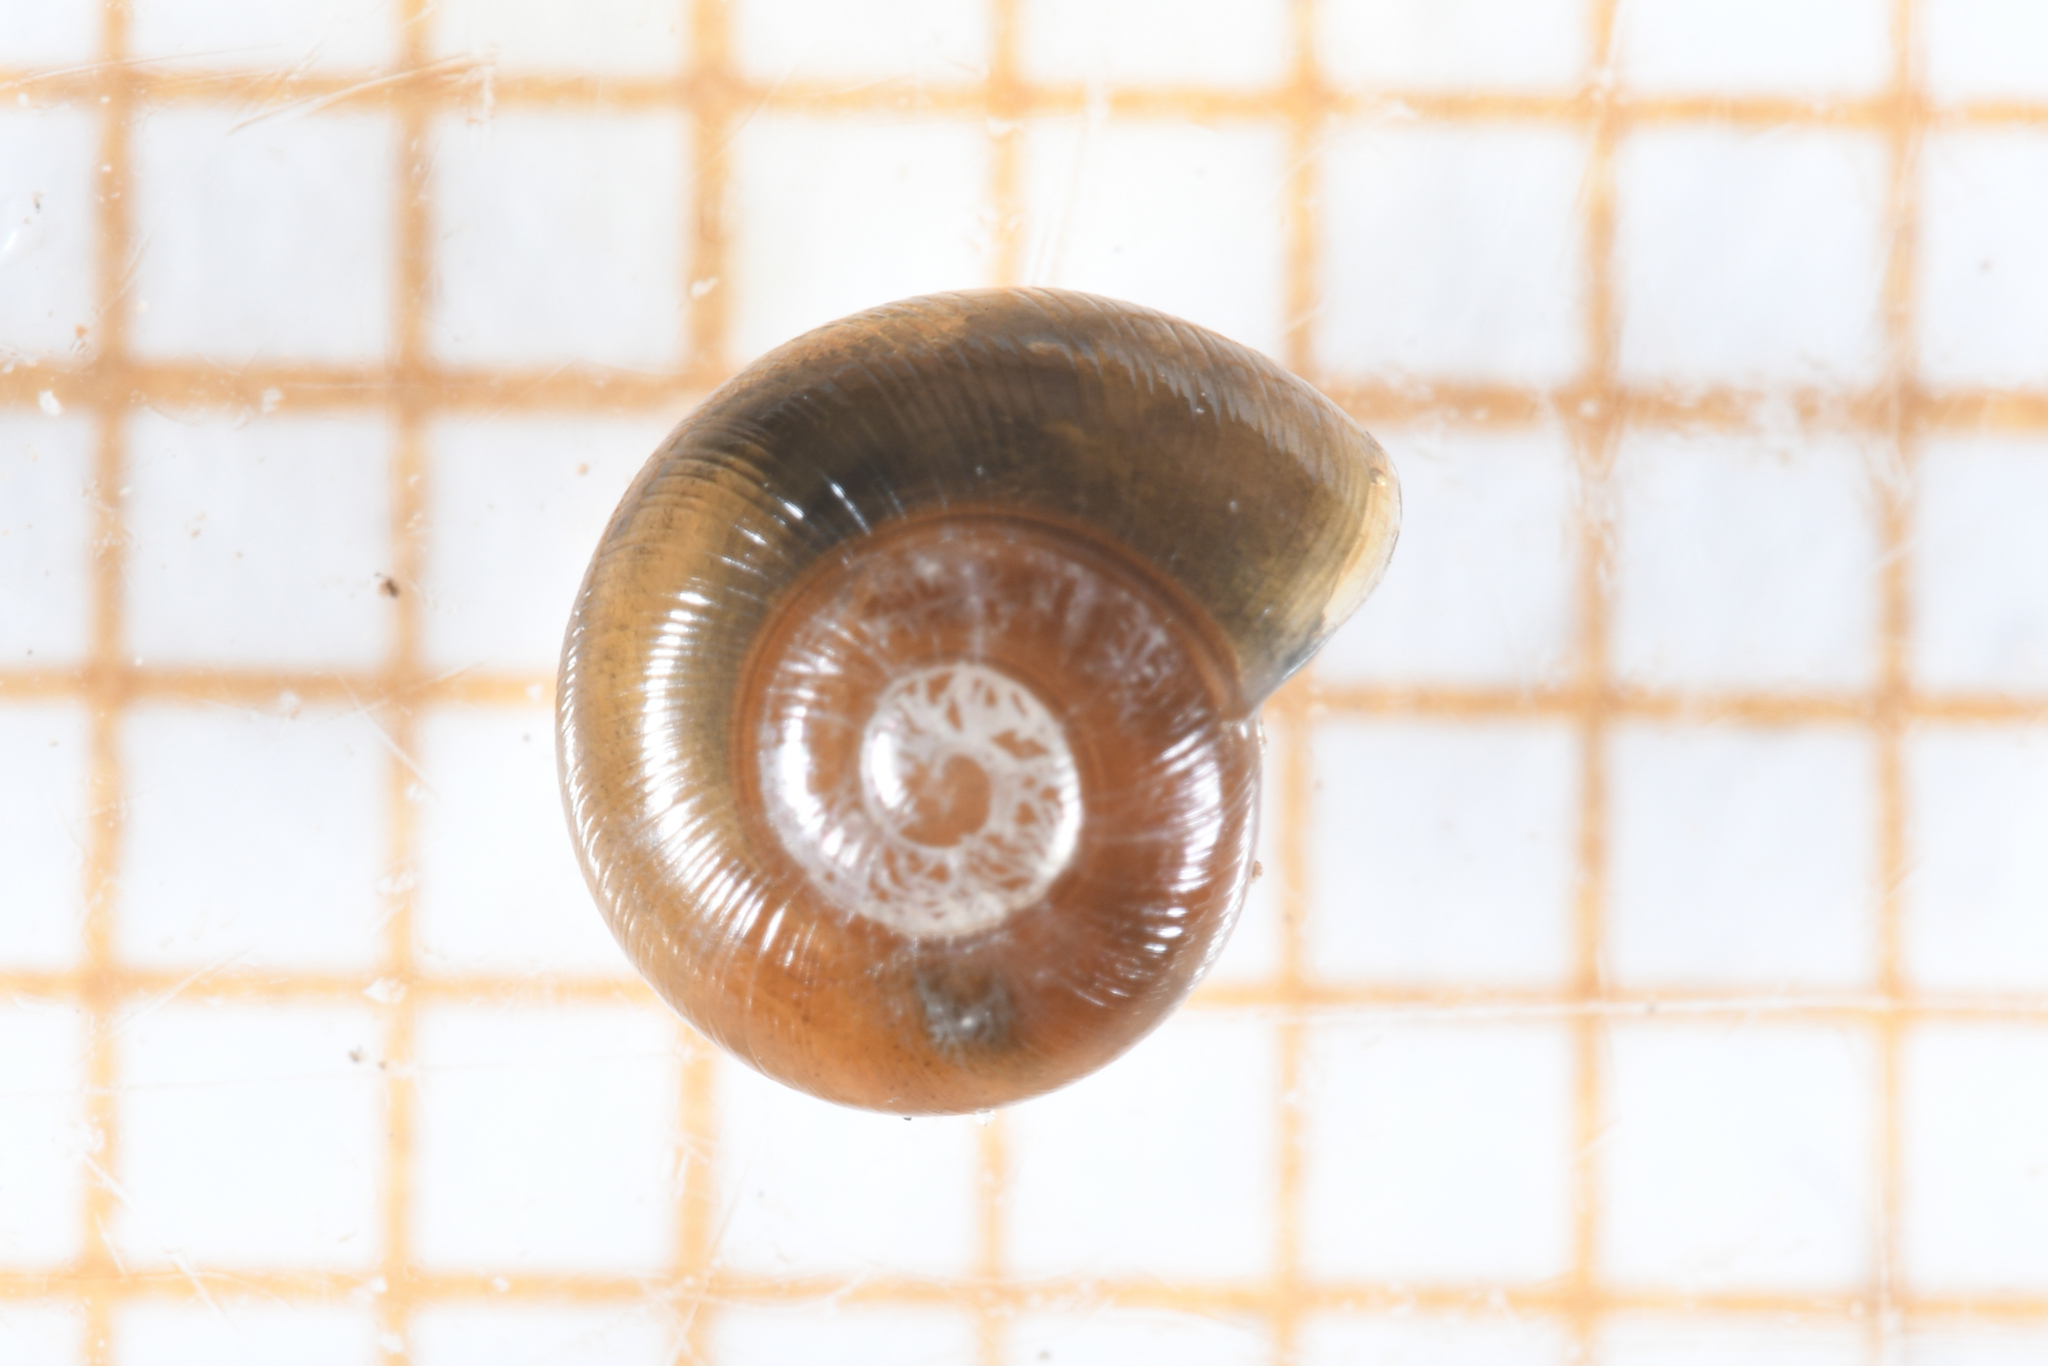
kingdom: Animalia
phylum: Mollusca
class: Gastropoda
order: Stylommatophora
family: Gastrodontidae
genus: Perpolita
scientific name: Perpolita hammonis
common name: Rayed glass snail
